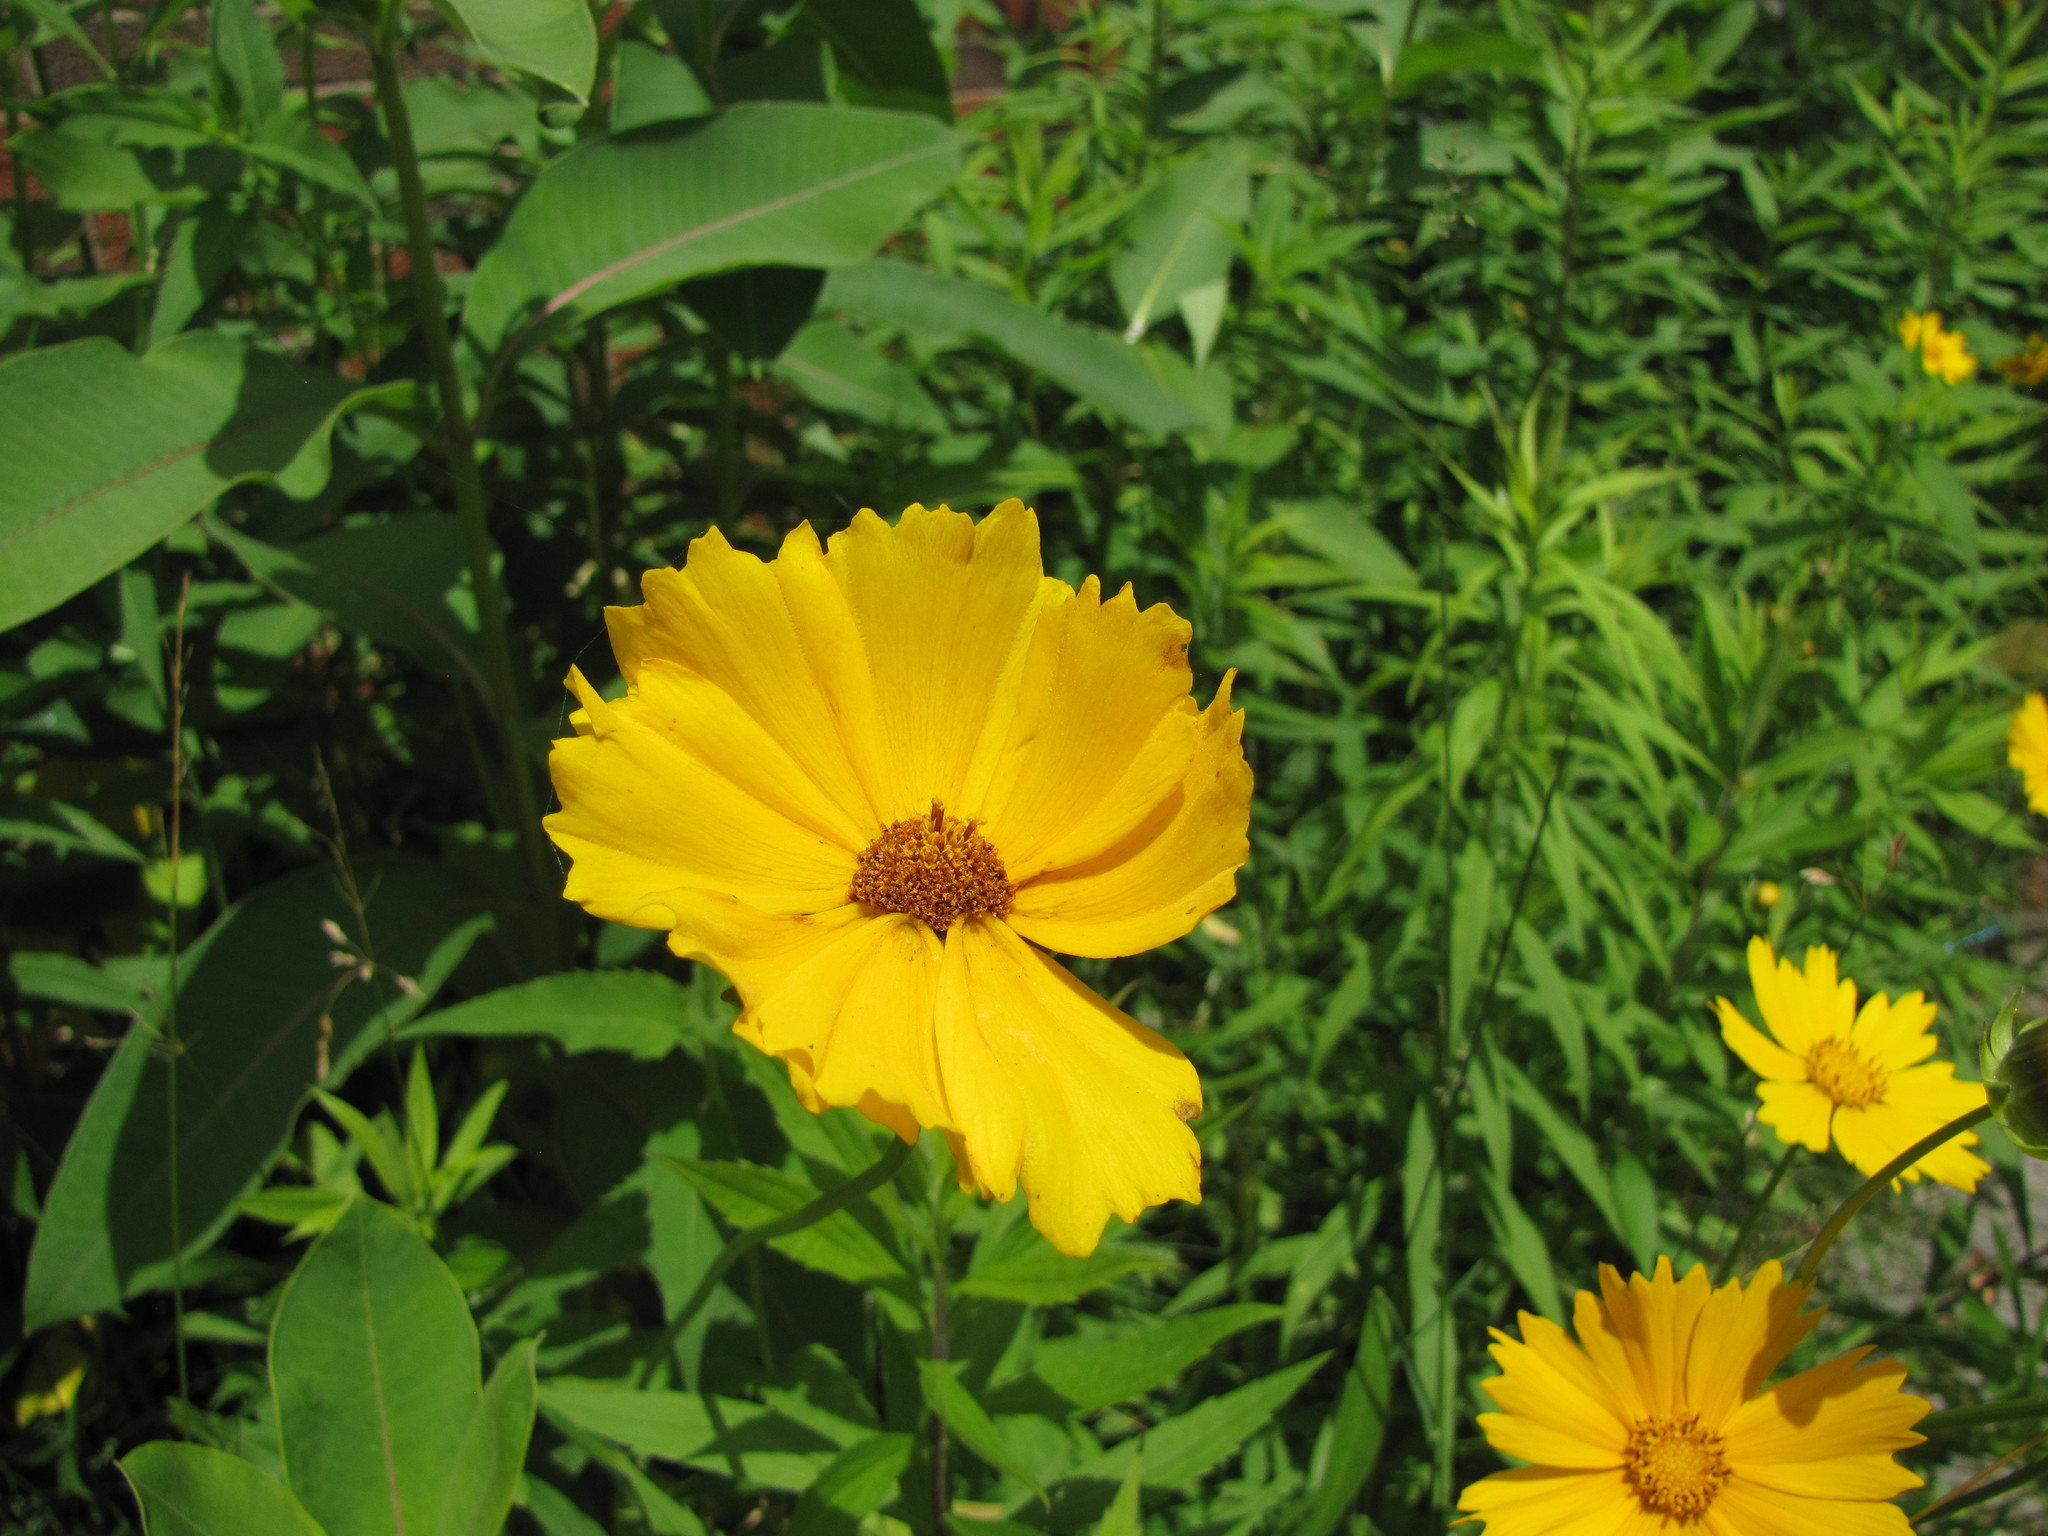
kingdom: Plantae
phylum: Tracheophyta
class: Magnoliopsida
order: Asterales
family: Asteraceae
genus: Coreopsis
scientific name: Coreopsis lanceolata
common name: Garden coreopsis
